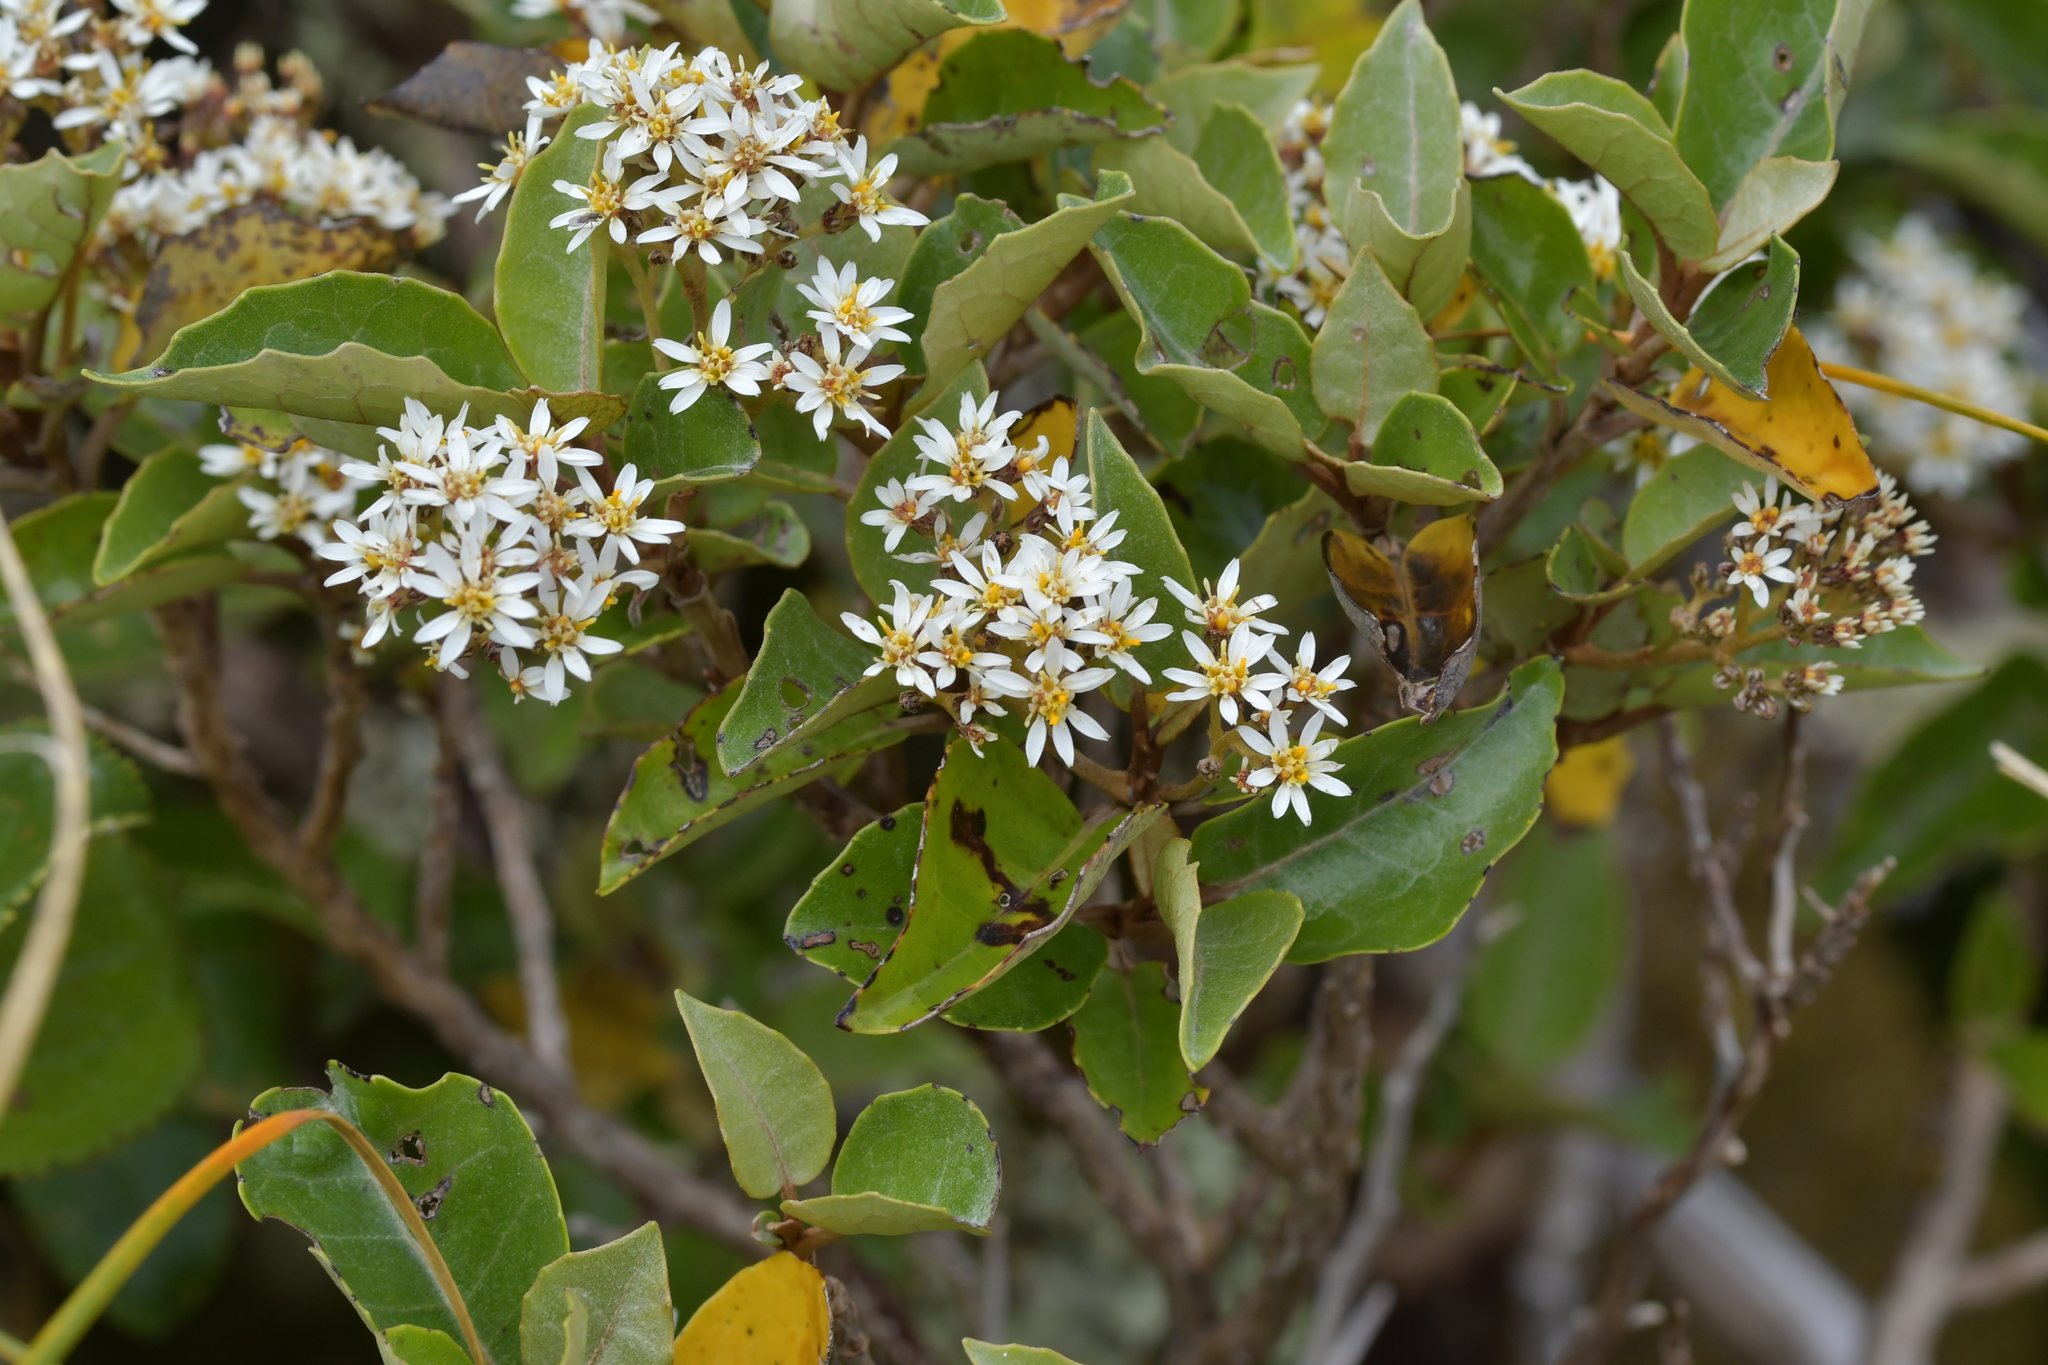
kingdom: Plantae
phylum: Tracheophyta
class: Magnoliopsida
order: Asterales
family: Asteraceae
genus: Olearia
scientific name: Olearia arborescens
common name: Glossy tree daisy
